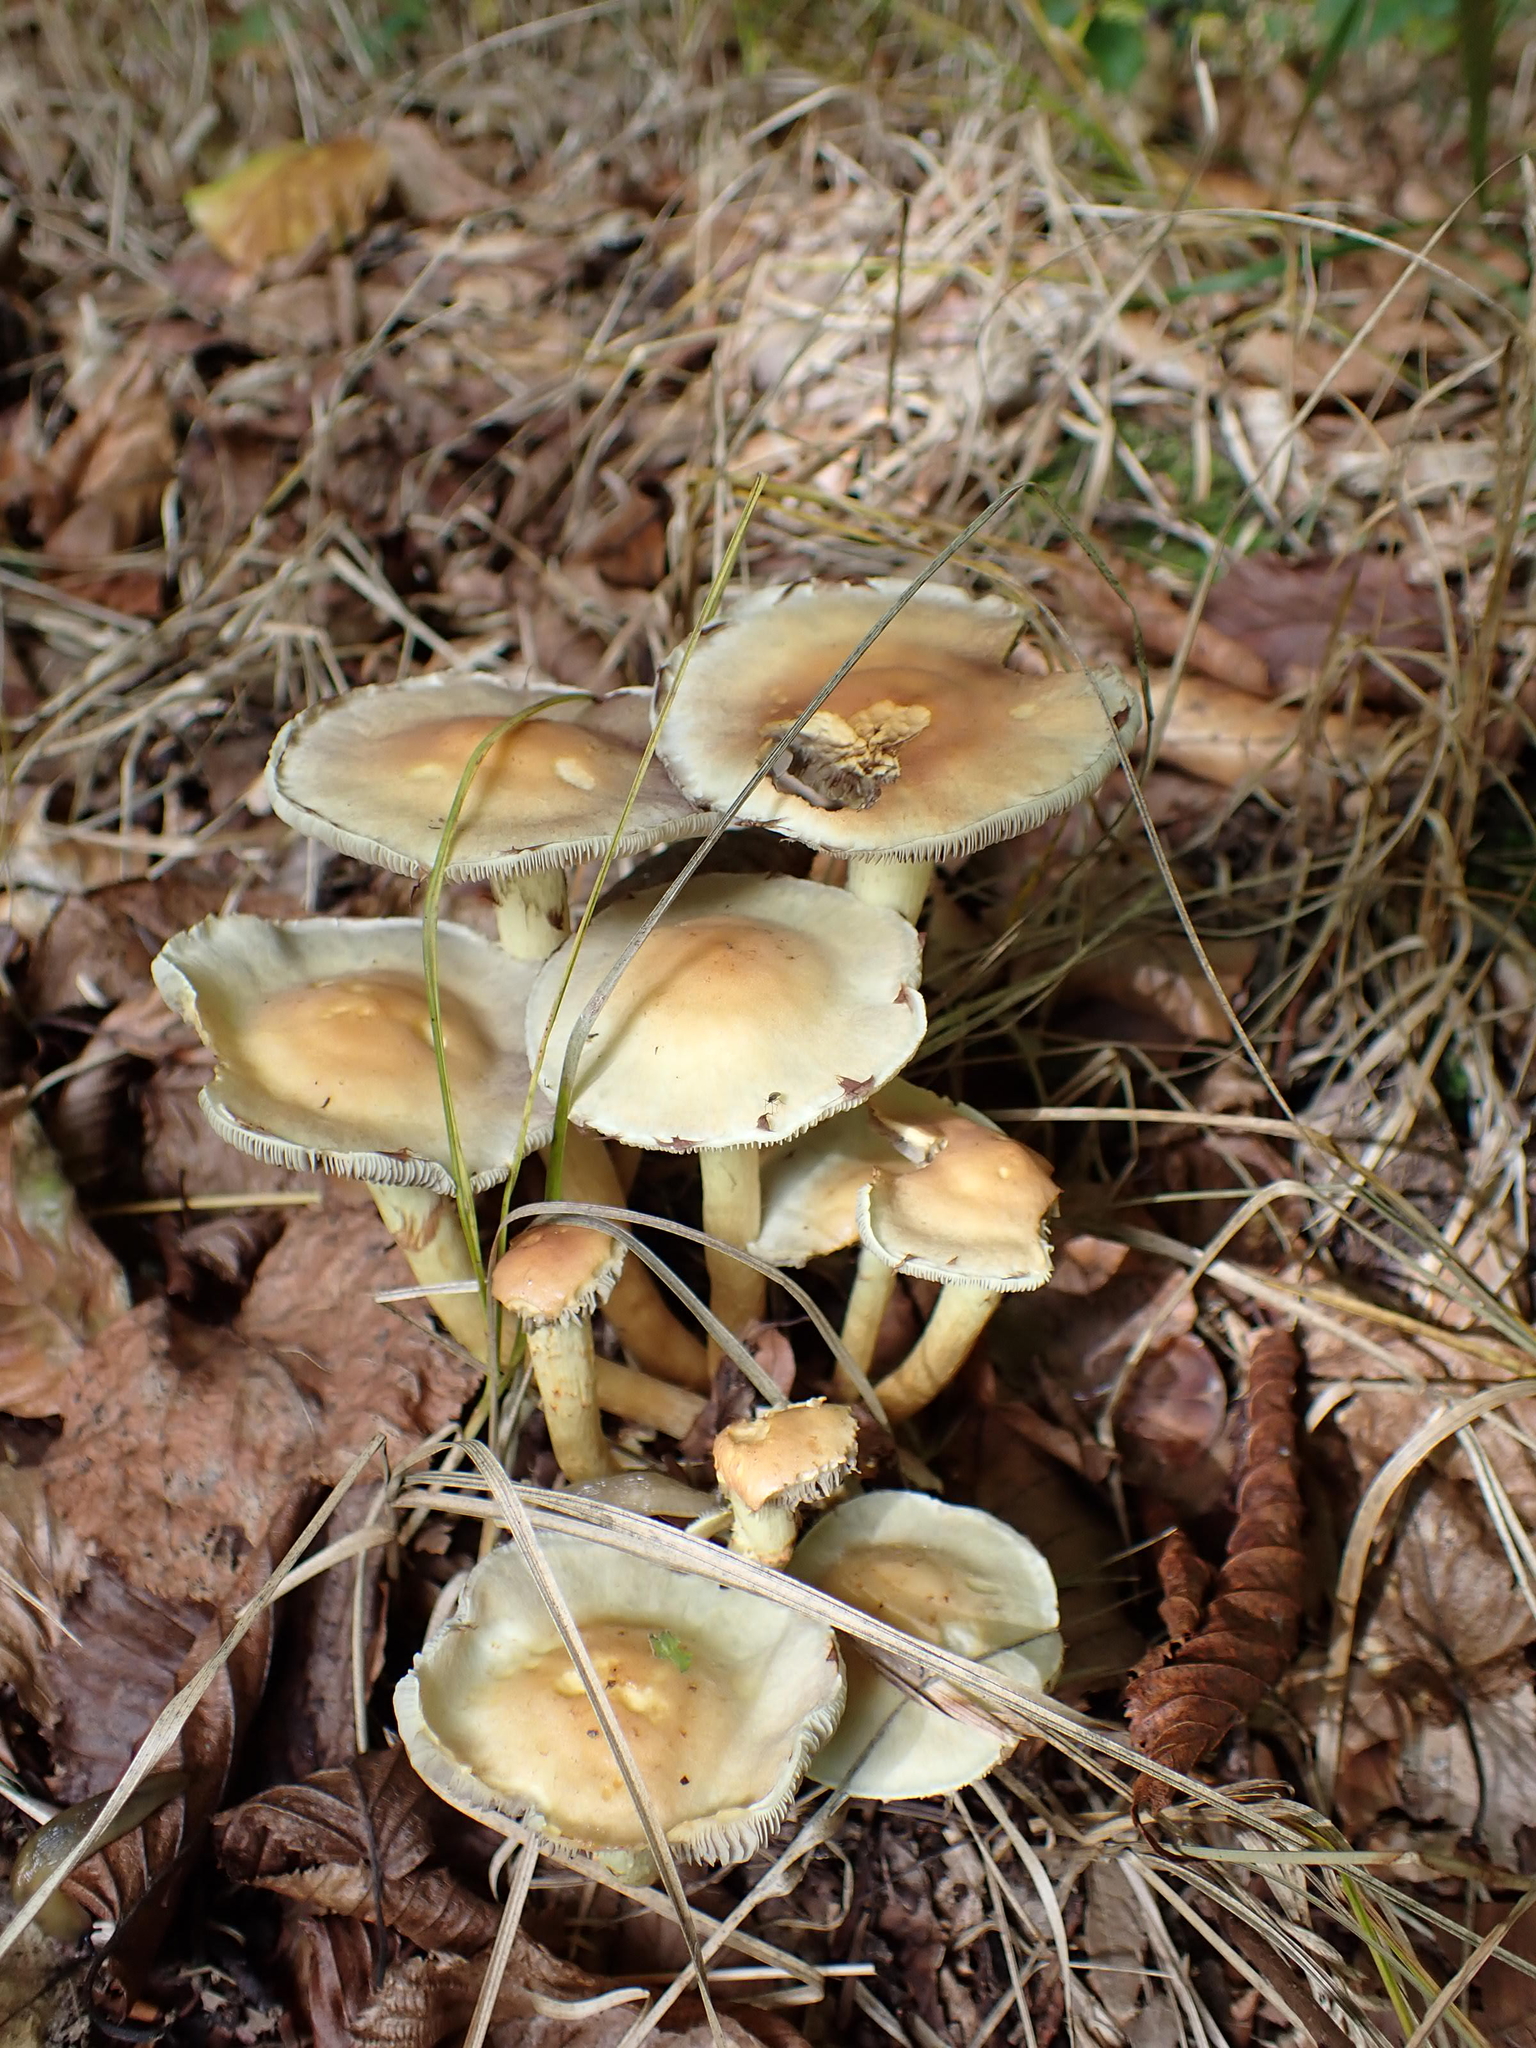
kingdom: Fungi
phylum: Basidiomycota
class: Agaricomycetes
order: Agaricales
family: Strophariaceae
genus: Hypholoma
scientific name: Hypholoma fasciculare
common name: Sulphur tuft
